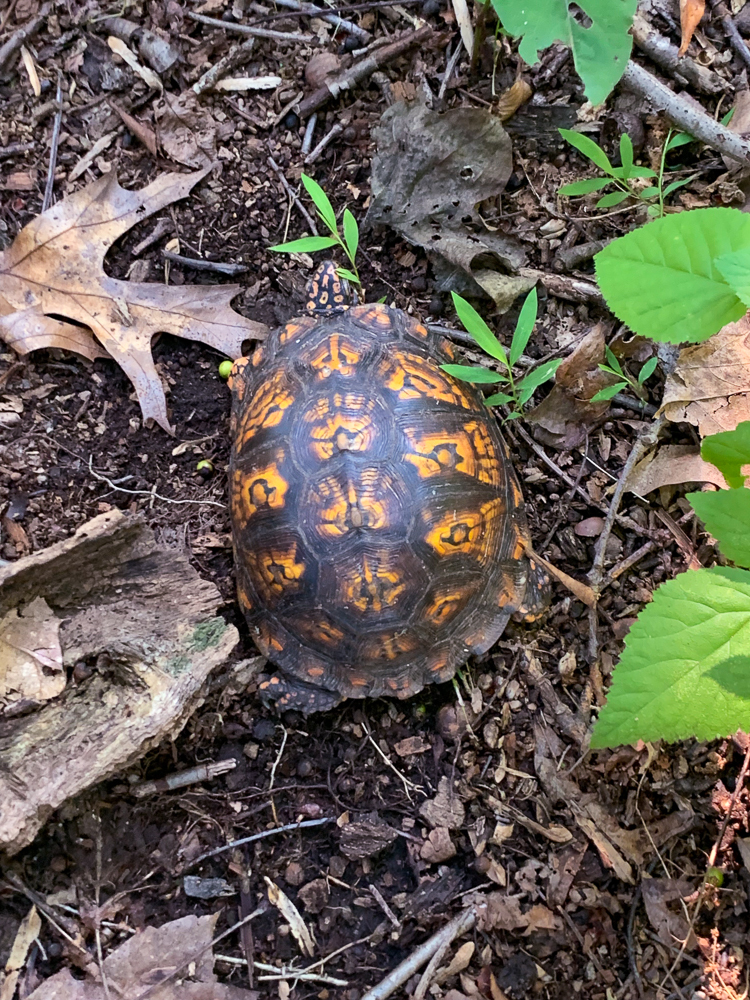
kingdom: Animalia
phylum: Chordata
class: Testudines
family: Emydidae
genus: Terrapene
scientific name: Terrapene carolina
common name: Common box turtle
